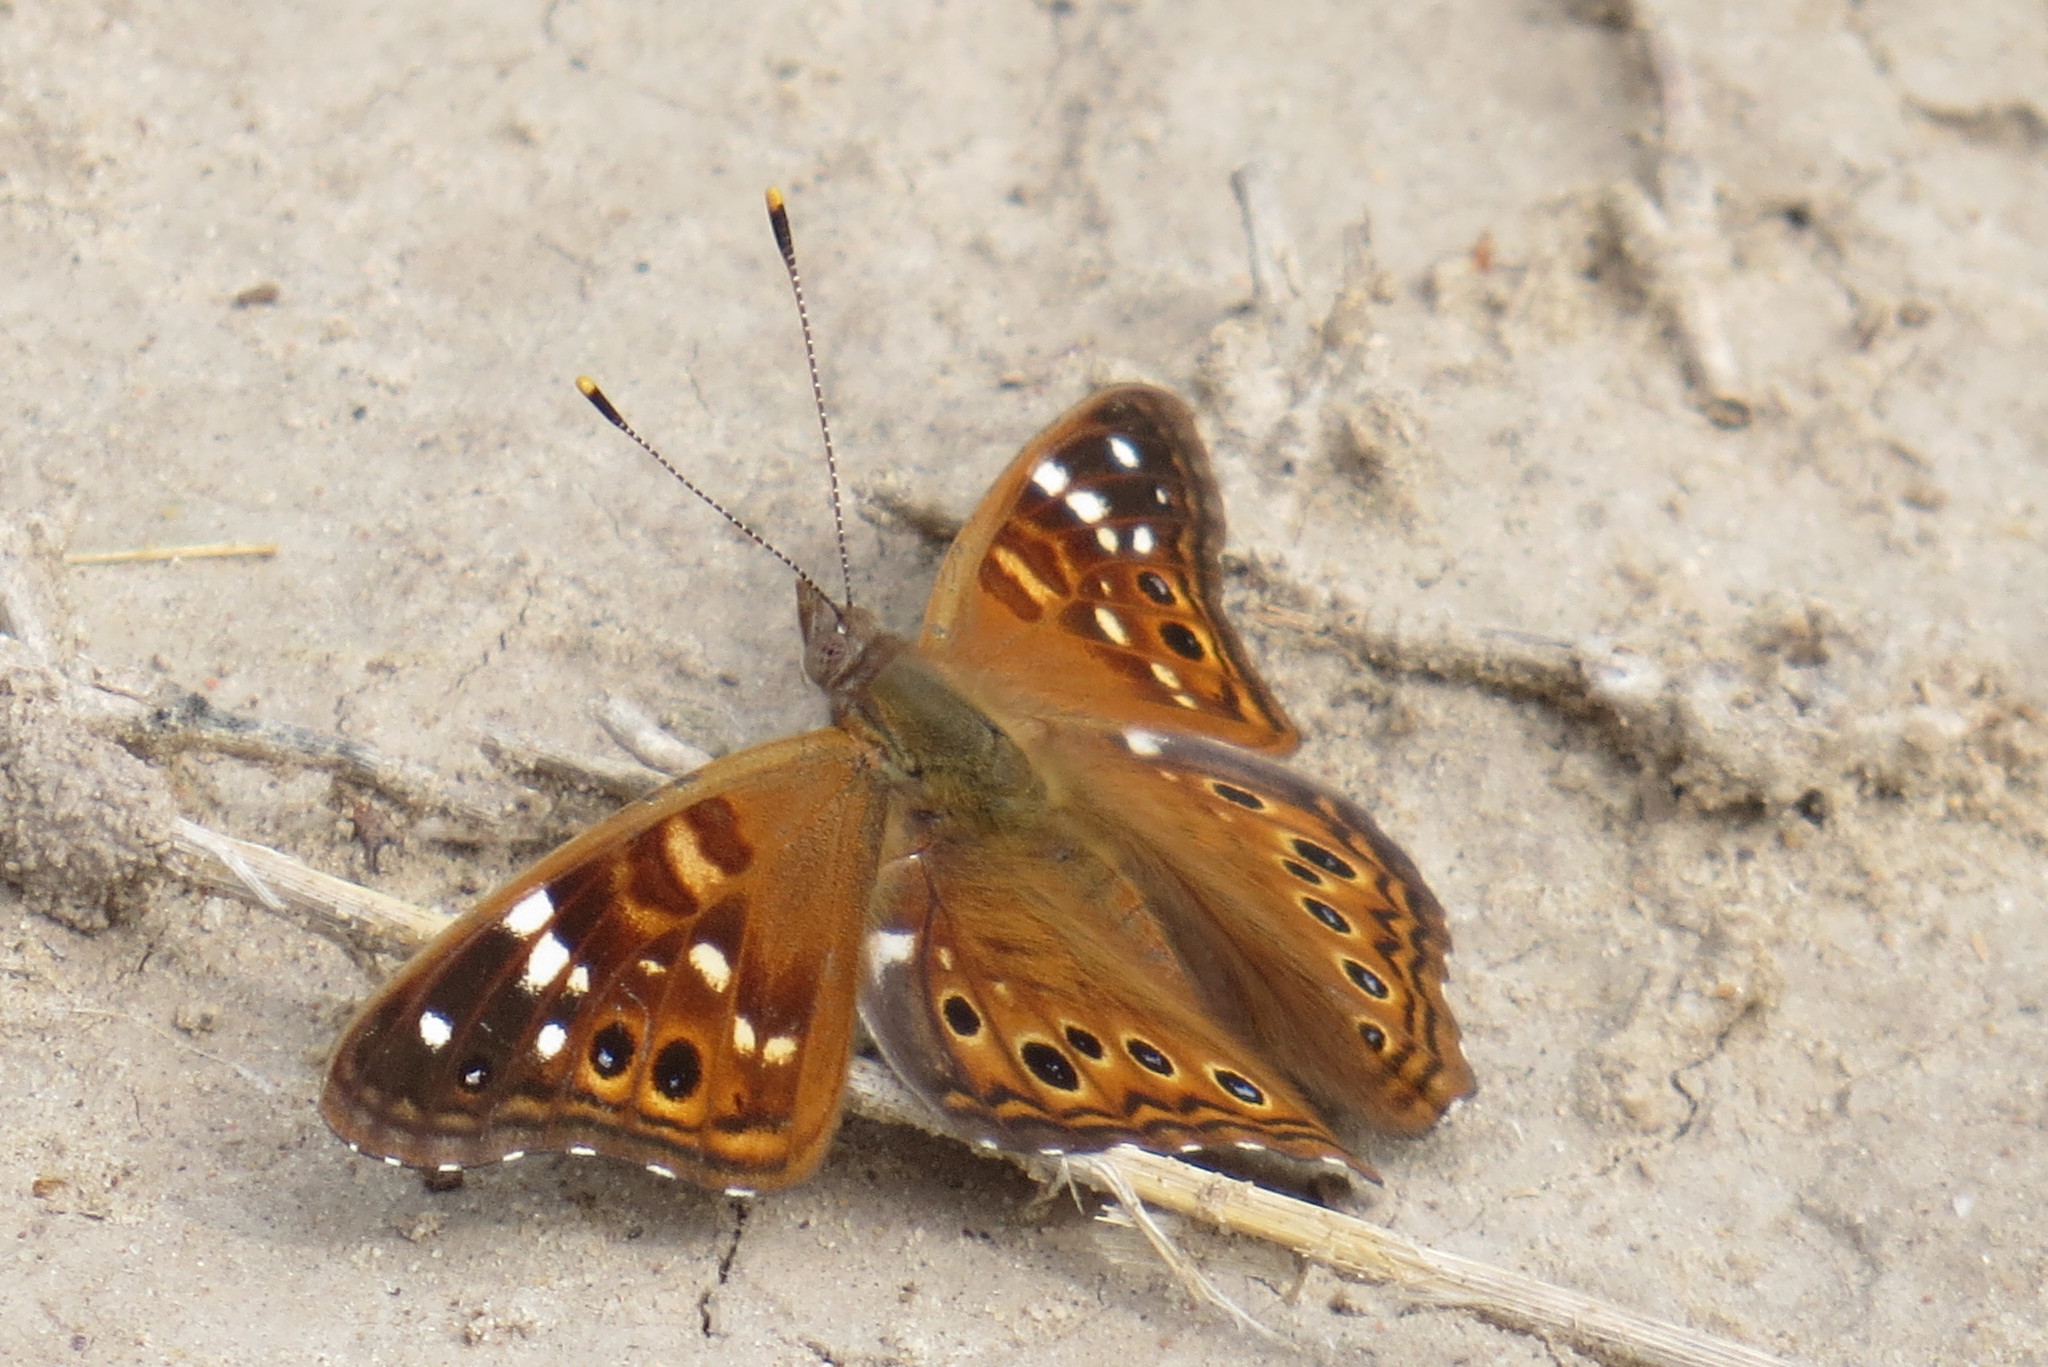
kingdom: Animalia
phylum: Arthropoda
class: Insecta
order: Lepidoptera
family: Nymphalidae
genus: Asterocampa
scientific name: Asterocampa leilia
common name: Empress leilia
